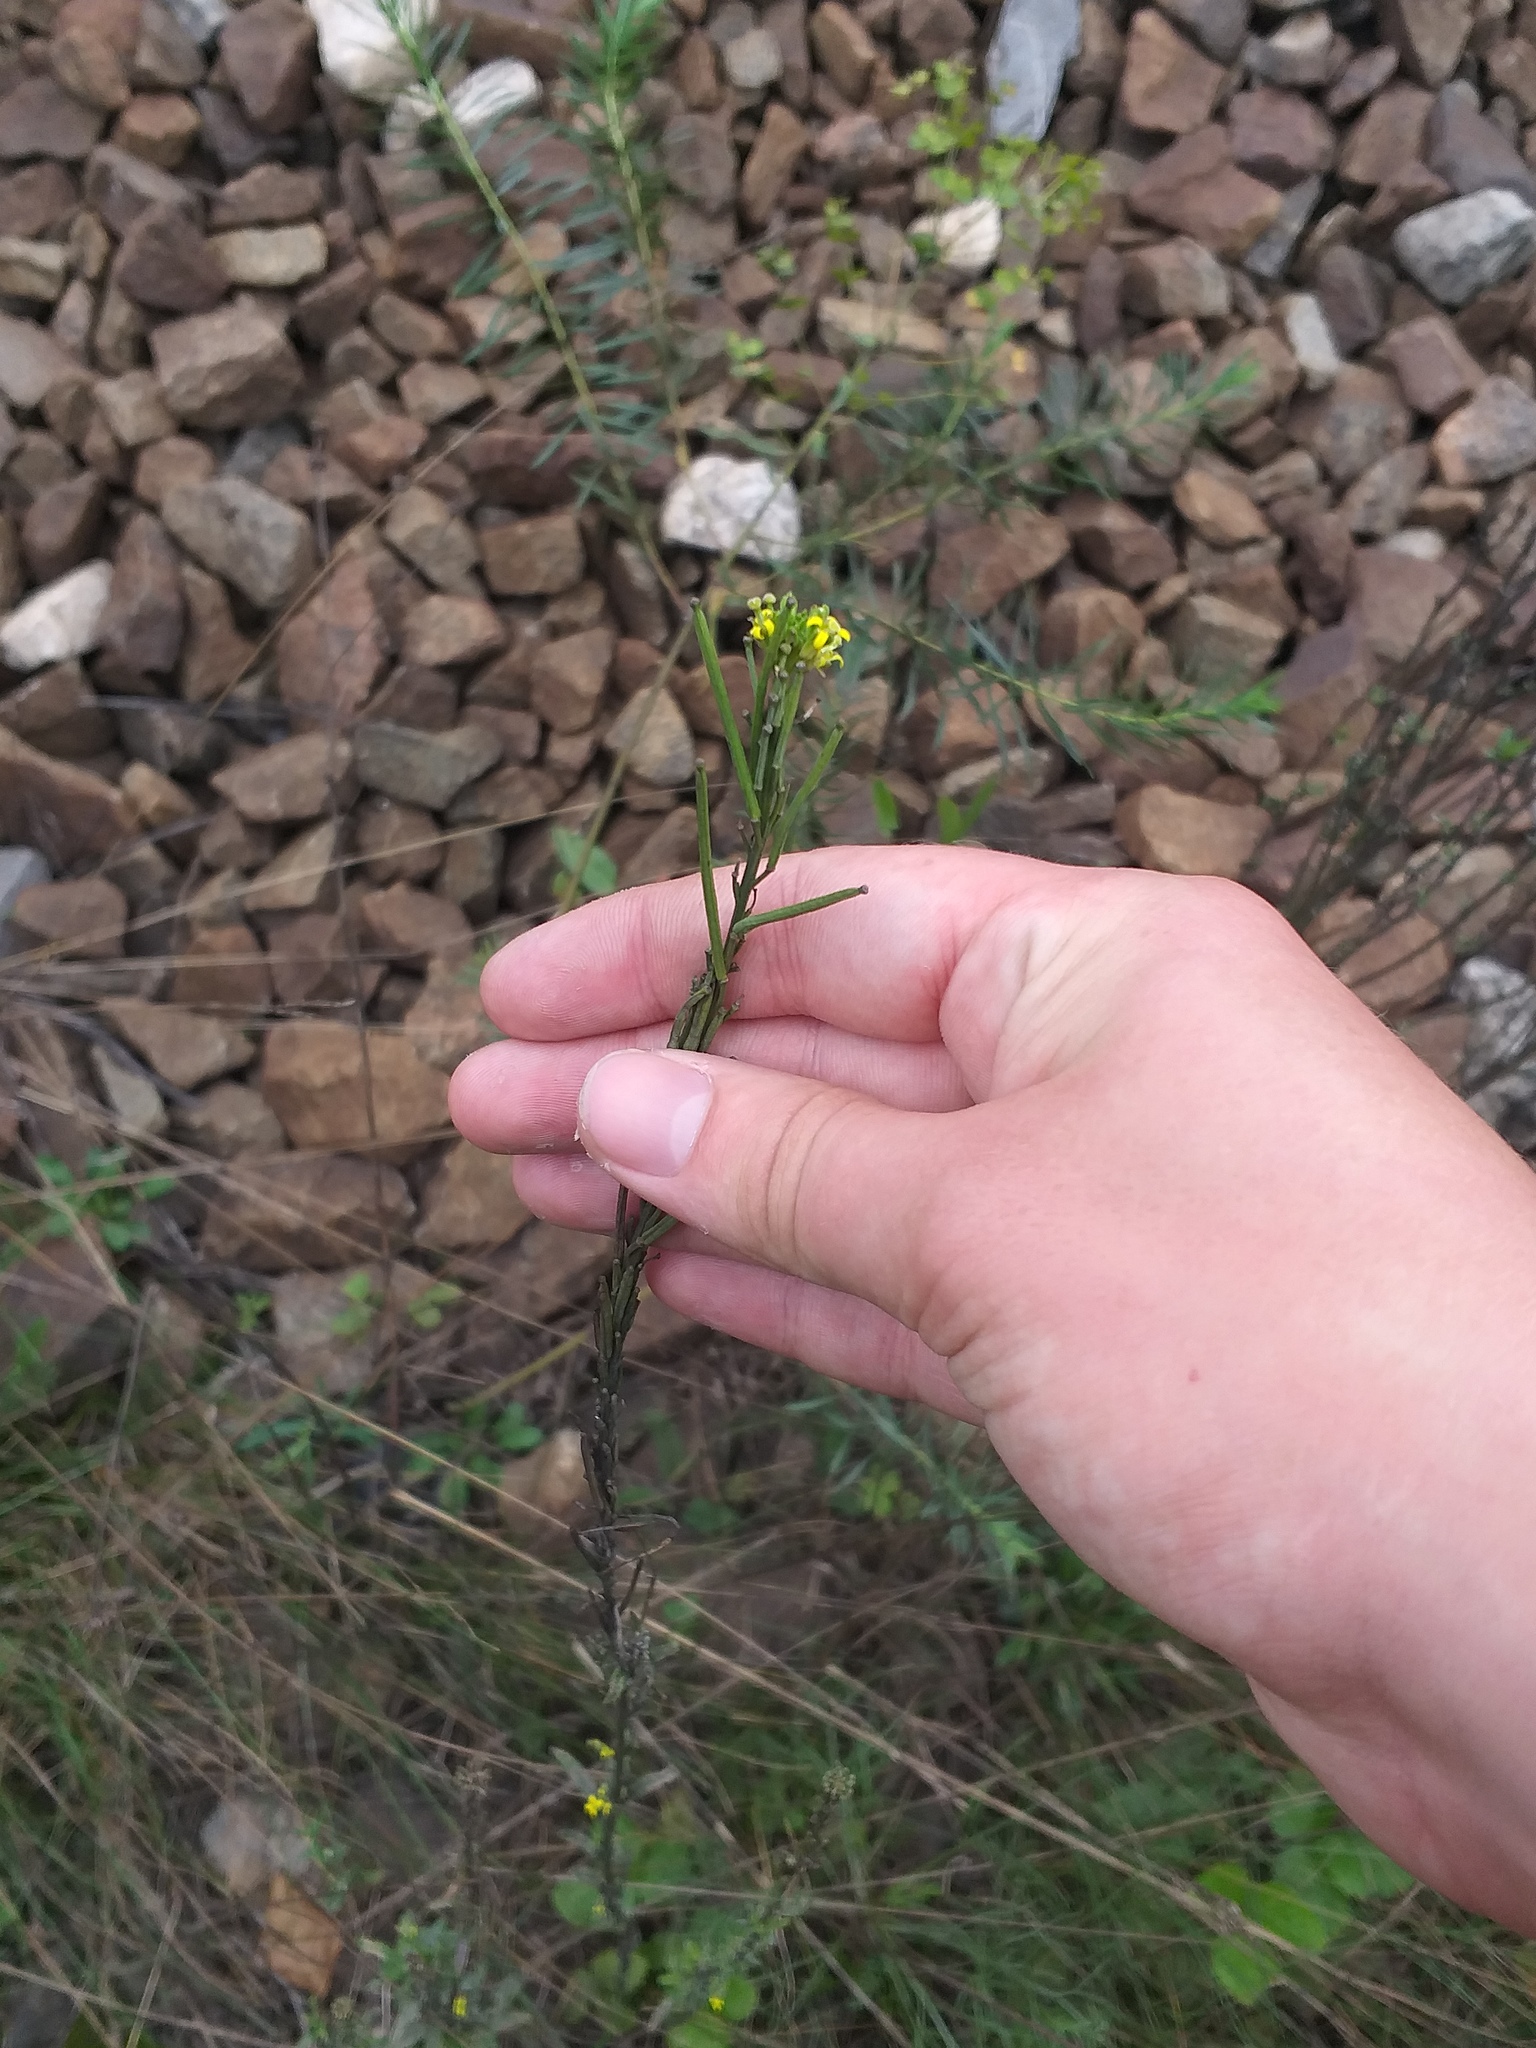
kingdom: Plantae
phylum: Tracheophyta
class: Magnoliopsida
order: Brassicales
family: Brassicaceae
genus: Erysimum
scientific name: Erysimum hieraciifolium
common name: European wallflower
